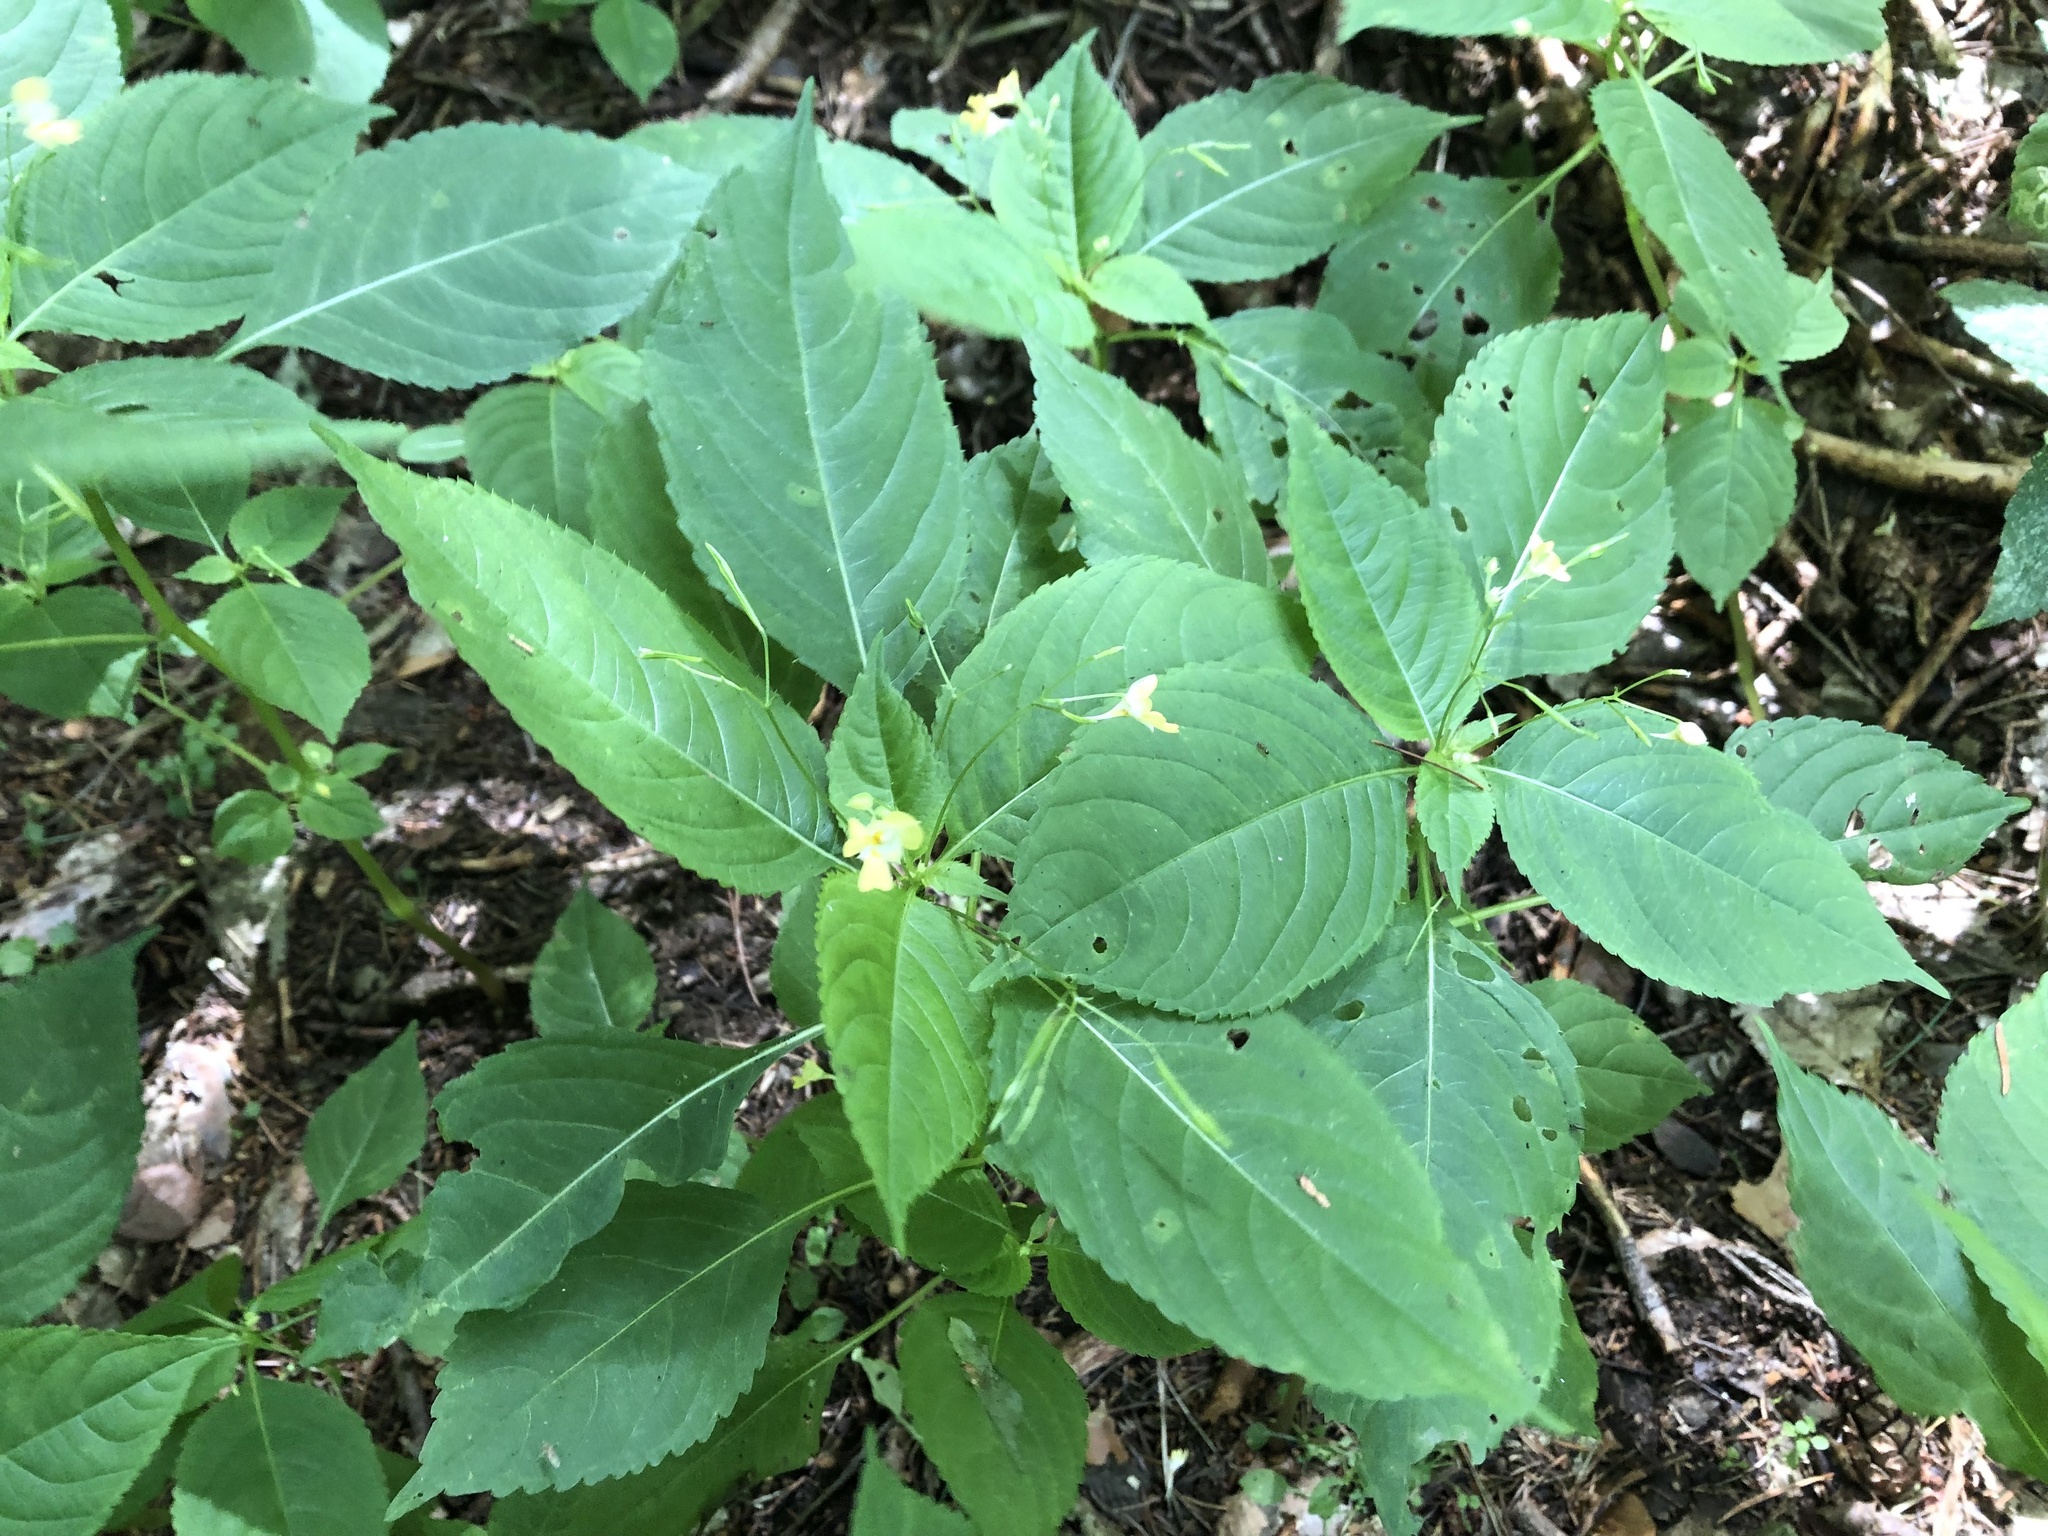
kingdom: Plantae
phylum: Tracheophyta
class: Magnoliopsida
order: Ericales
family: Balsaminaceae
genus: Impatiens
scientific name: Impatiens parviflora
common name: Small balsam
